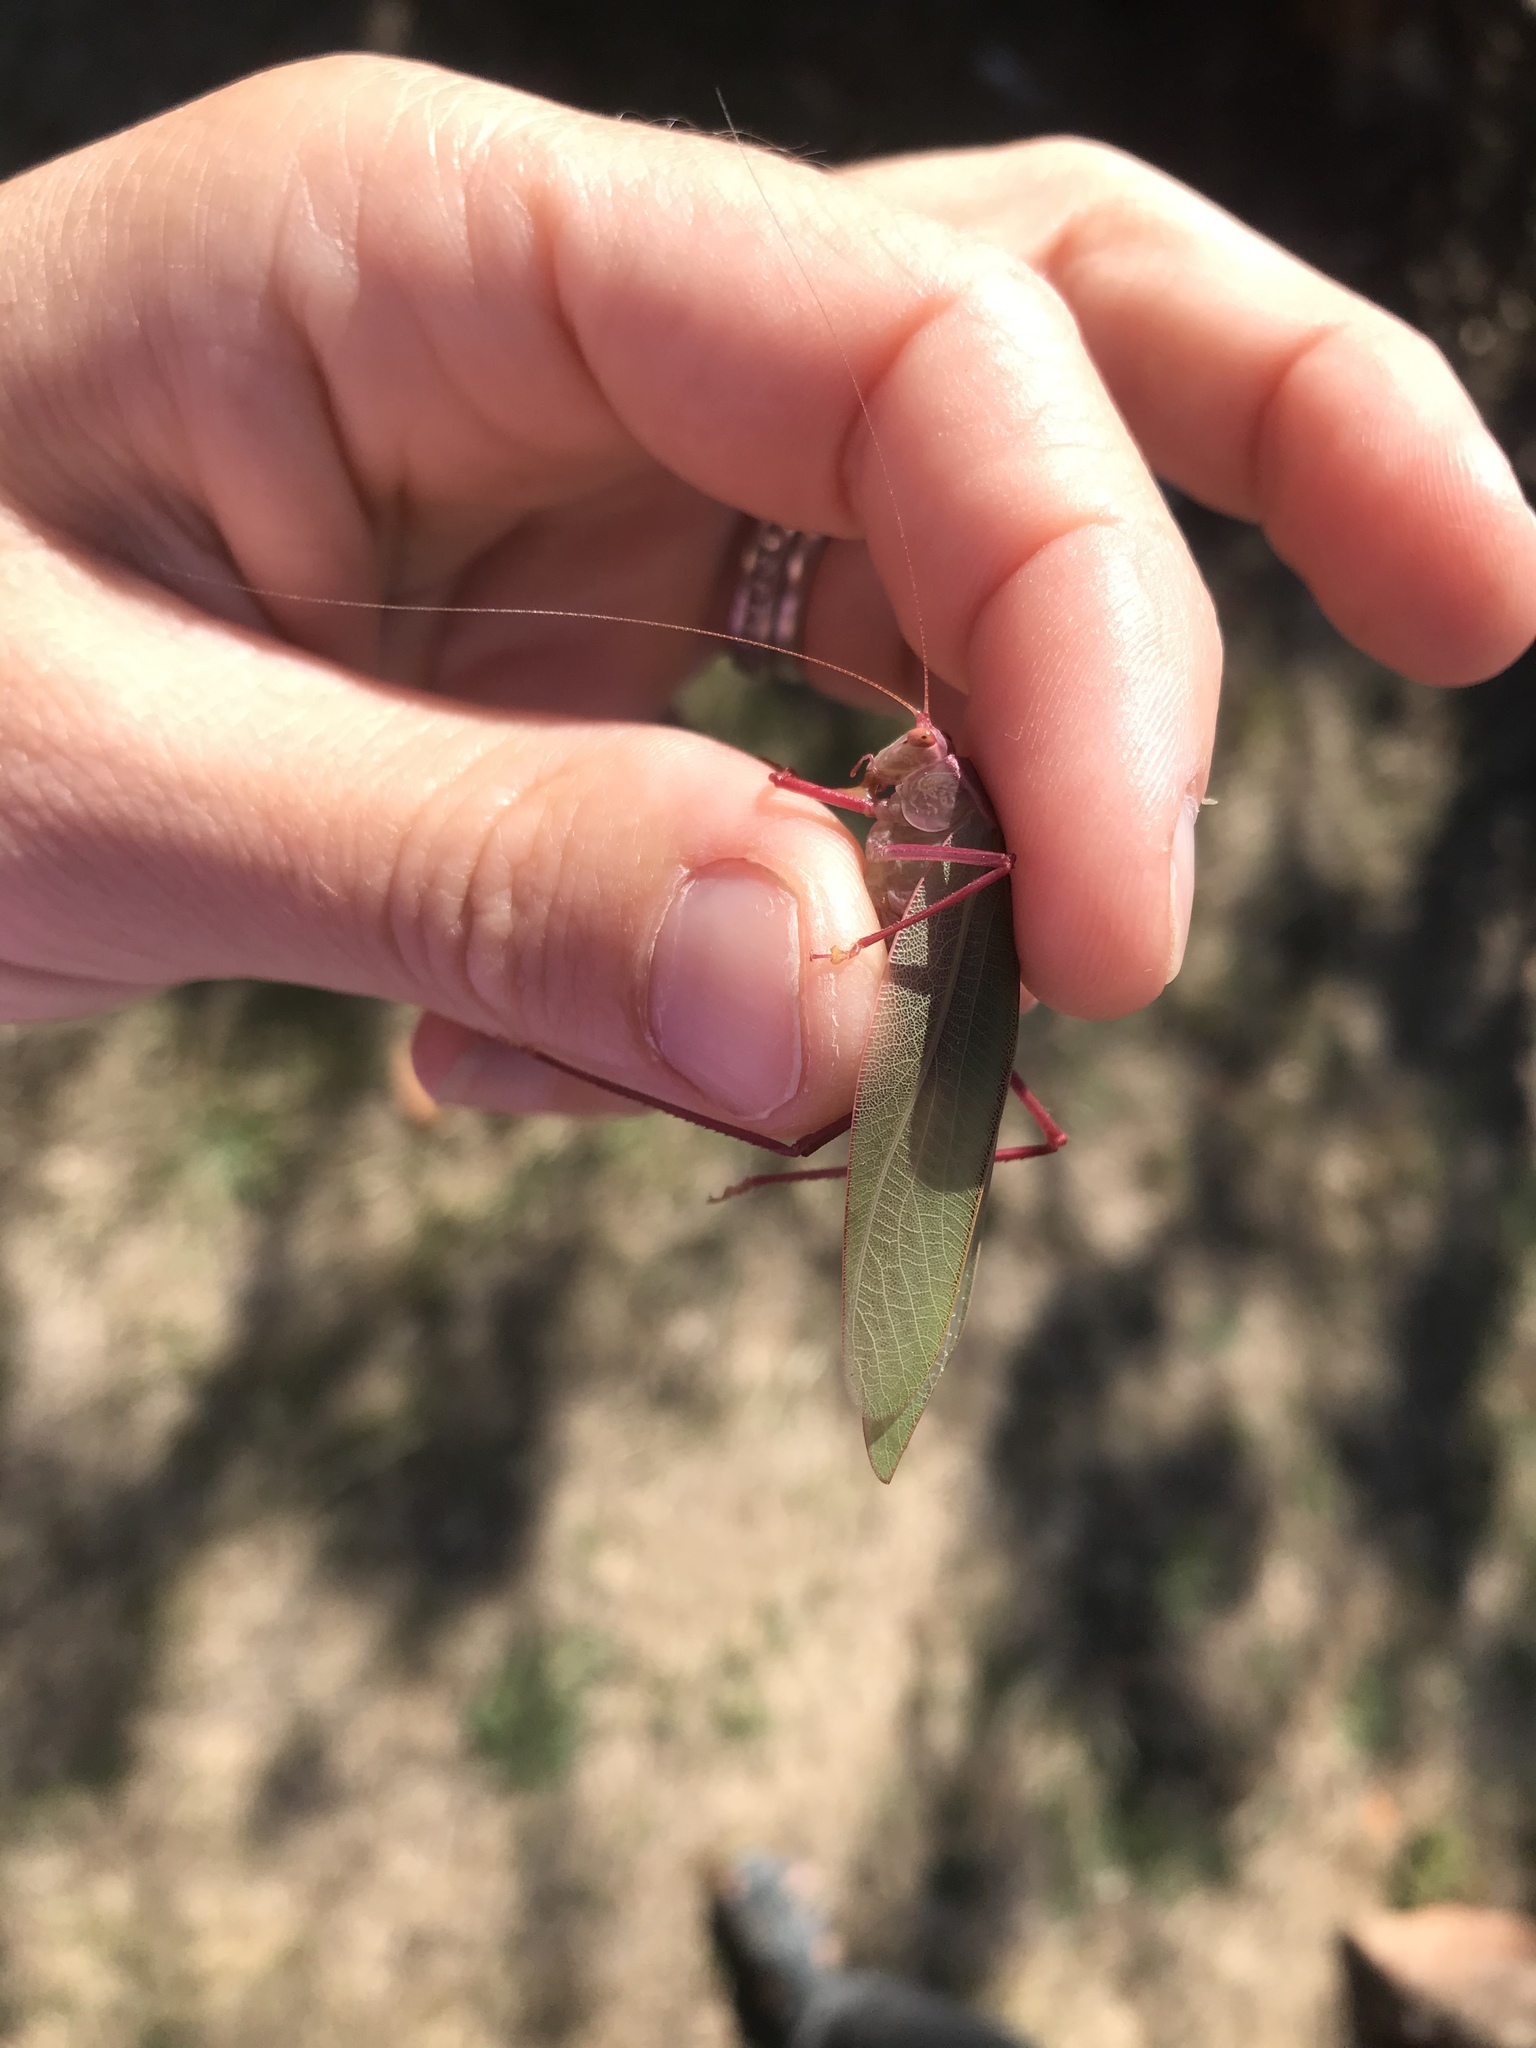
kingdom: Animalia
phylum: Arthropoda
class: Insecta
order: Orthoptera
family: Tettigoniidae
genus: Caedicia
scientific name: Caedicia simplex
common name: Common garden katydid
